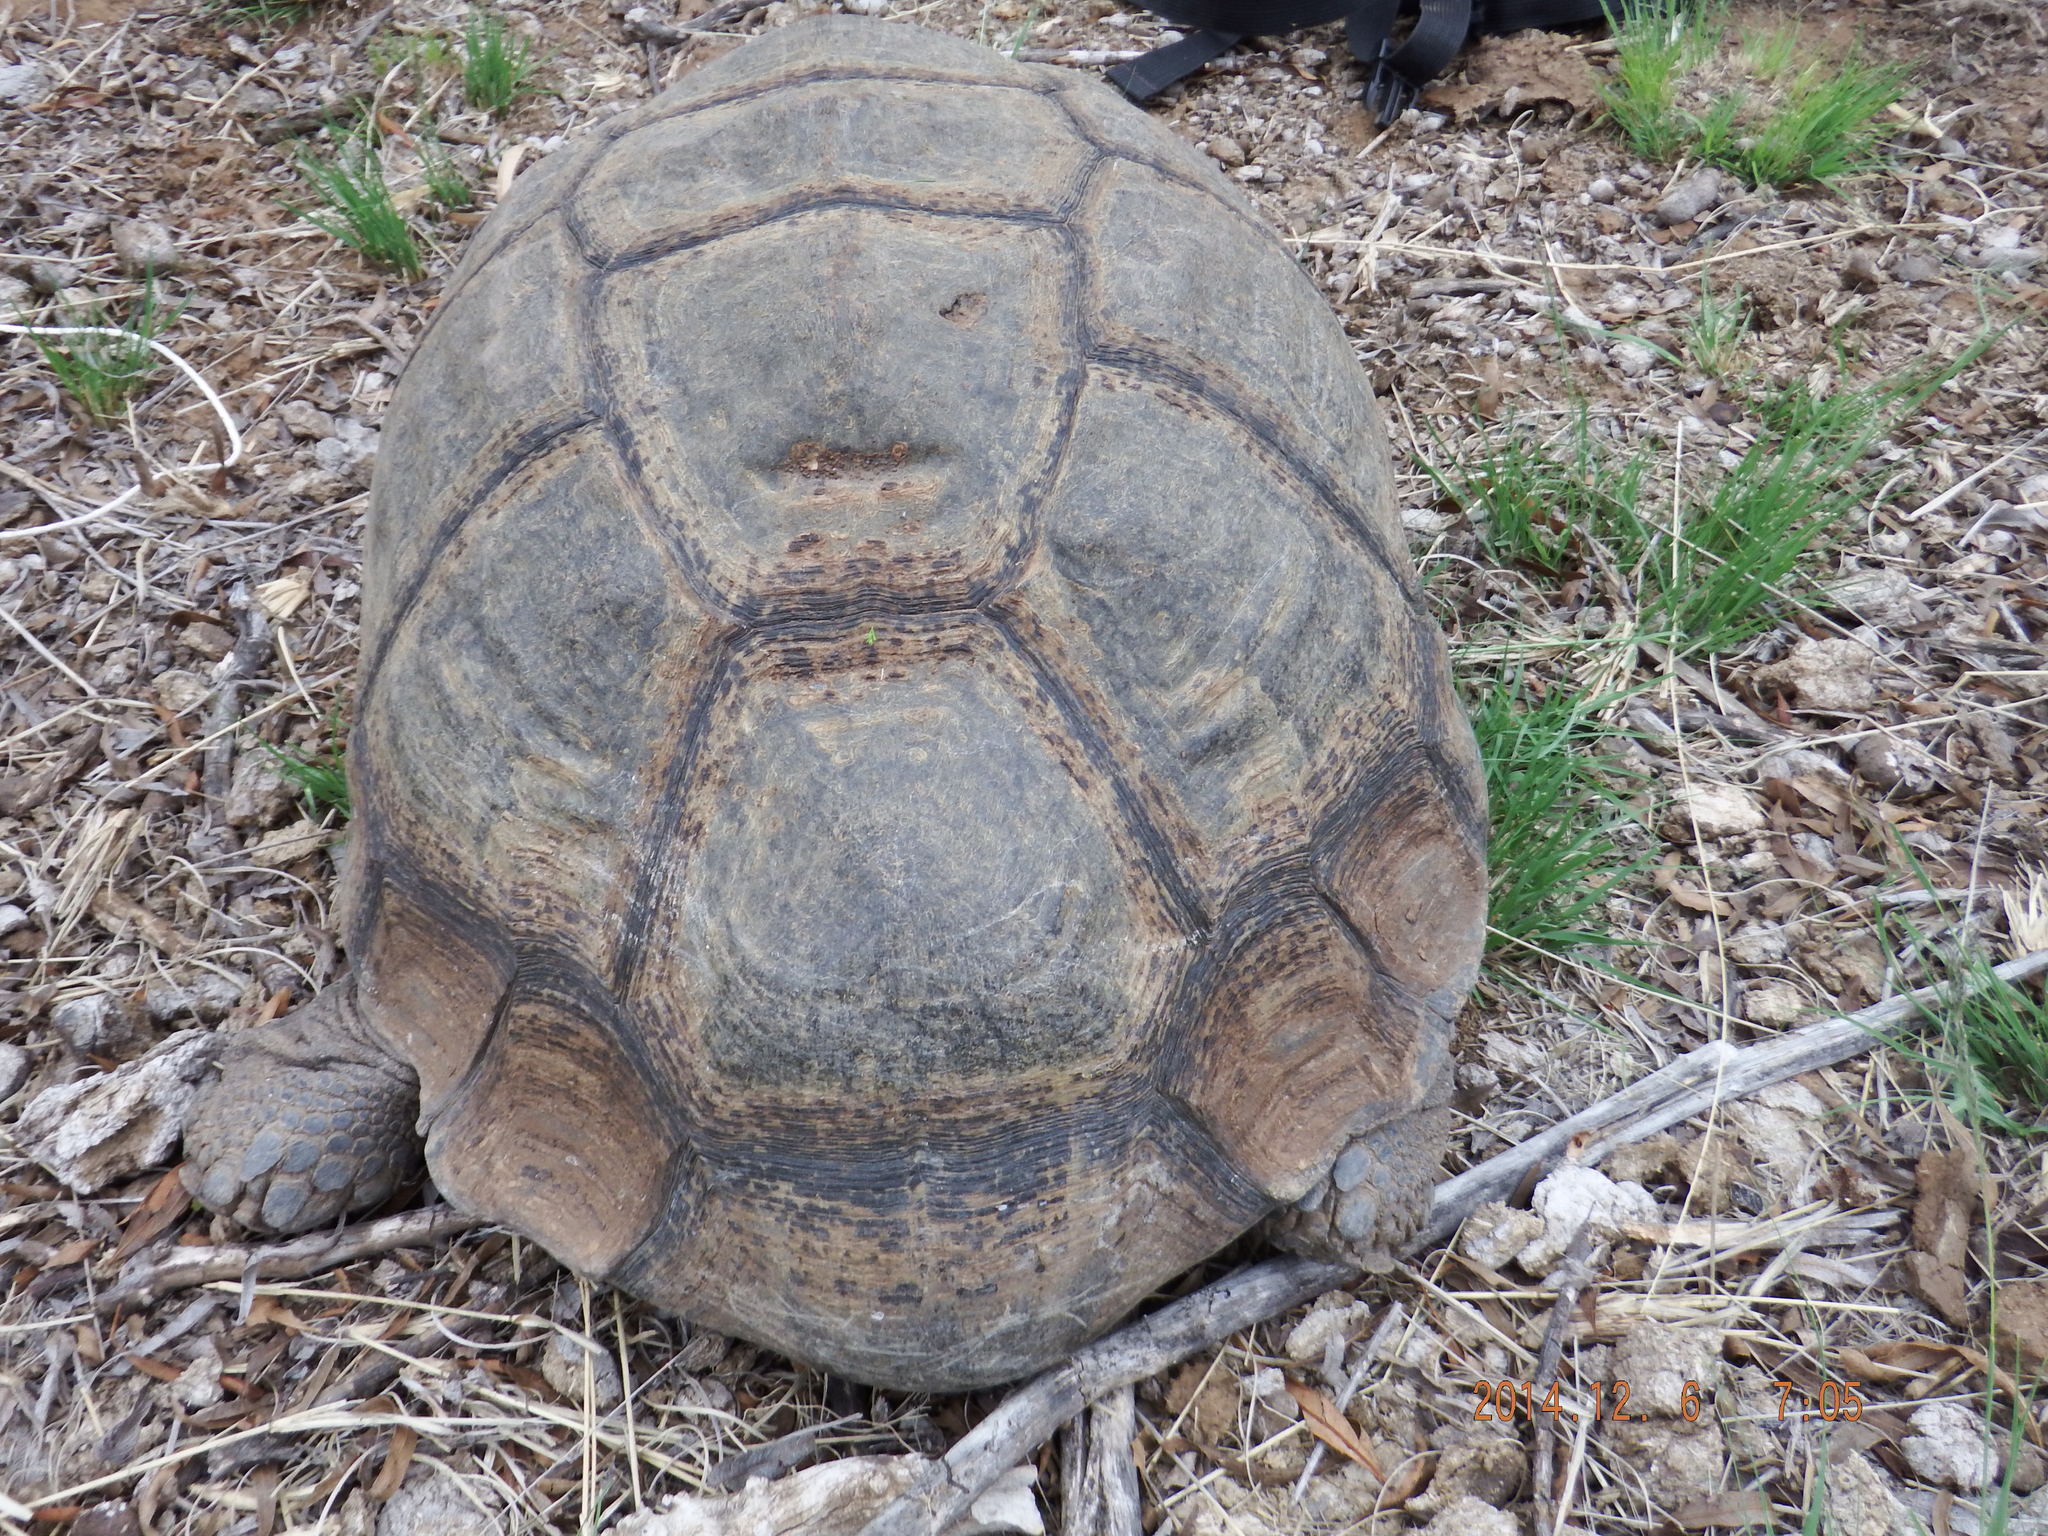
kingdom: Animalia
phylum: Chordata
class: Testudines
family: Testudinidae
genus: Stigmochelys
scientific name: Stigmochelys pardalis
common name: Leopard tortoise
